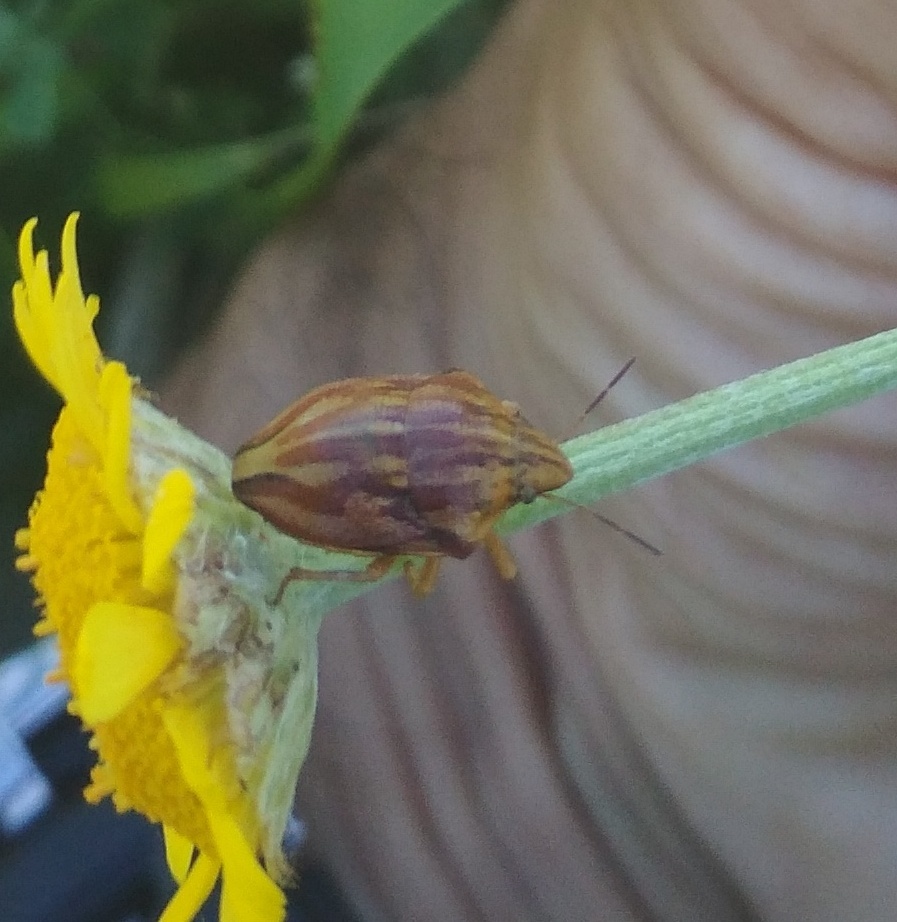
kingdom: Animalia
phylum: Arthropoda
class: Insecta
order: Hemiptera
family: Scutelleridae
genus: Odontotarsus
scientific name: Odontotarsus purpureolineatus
